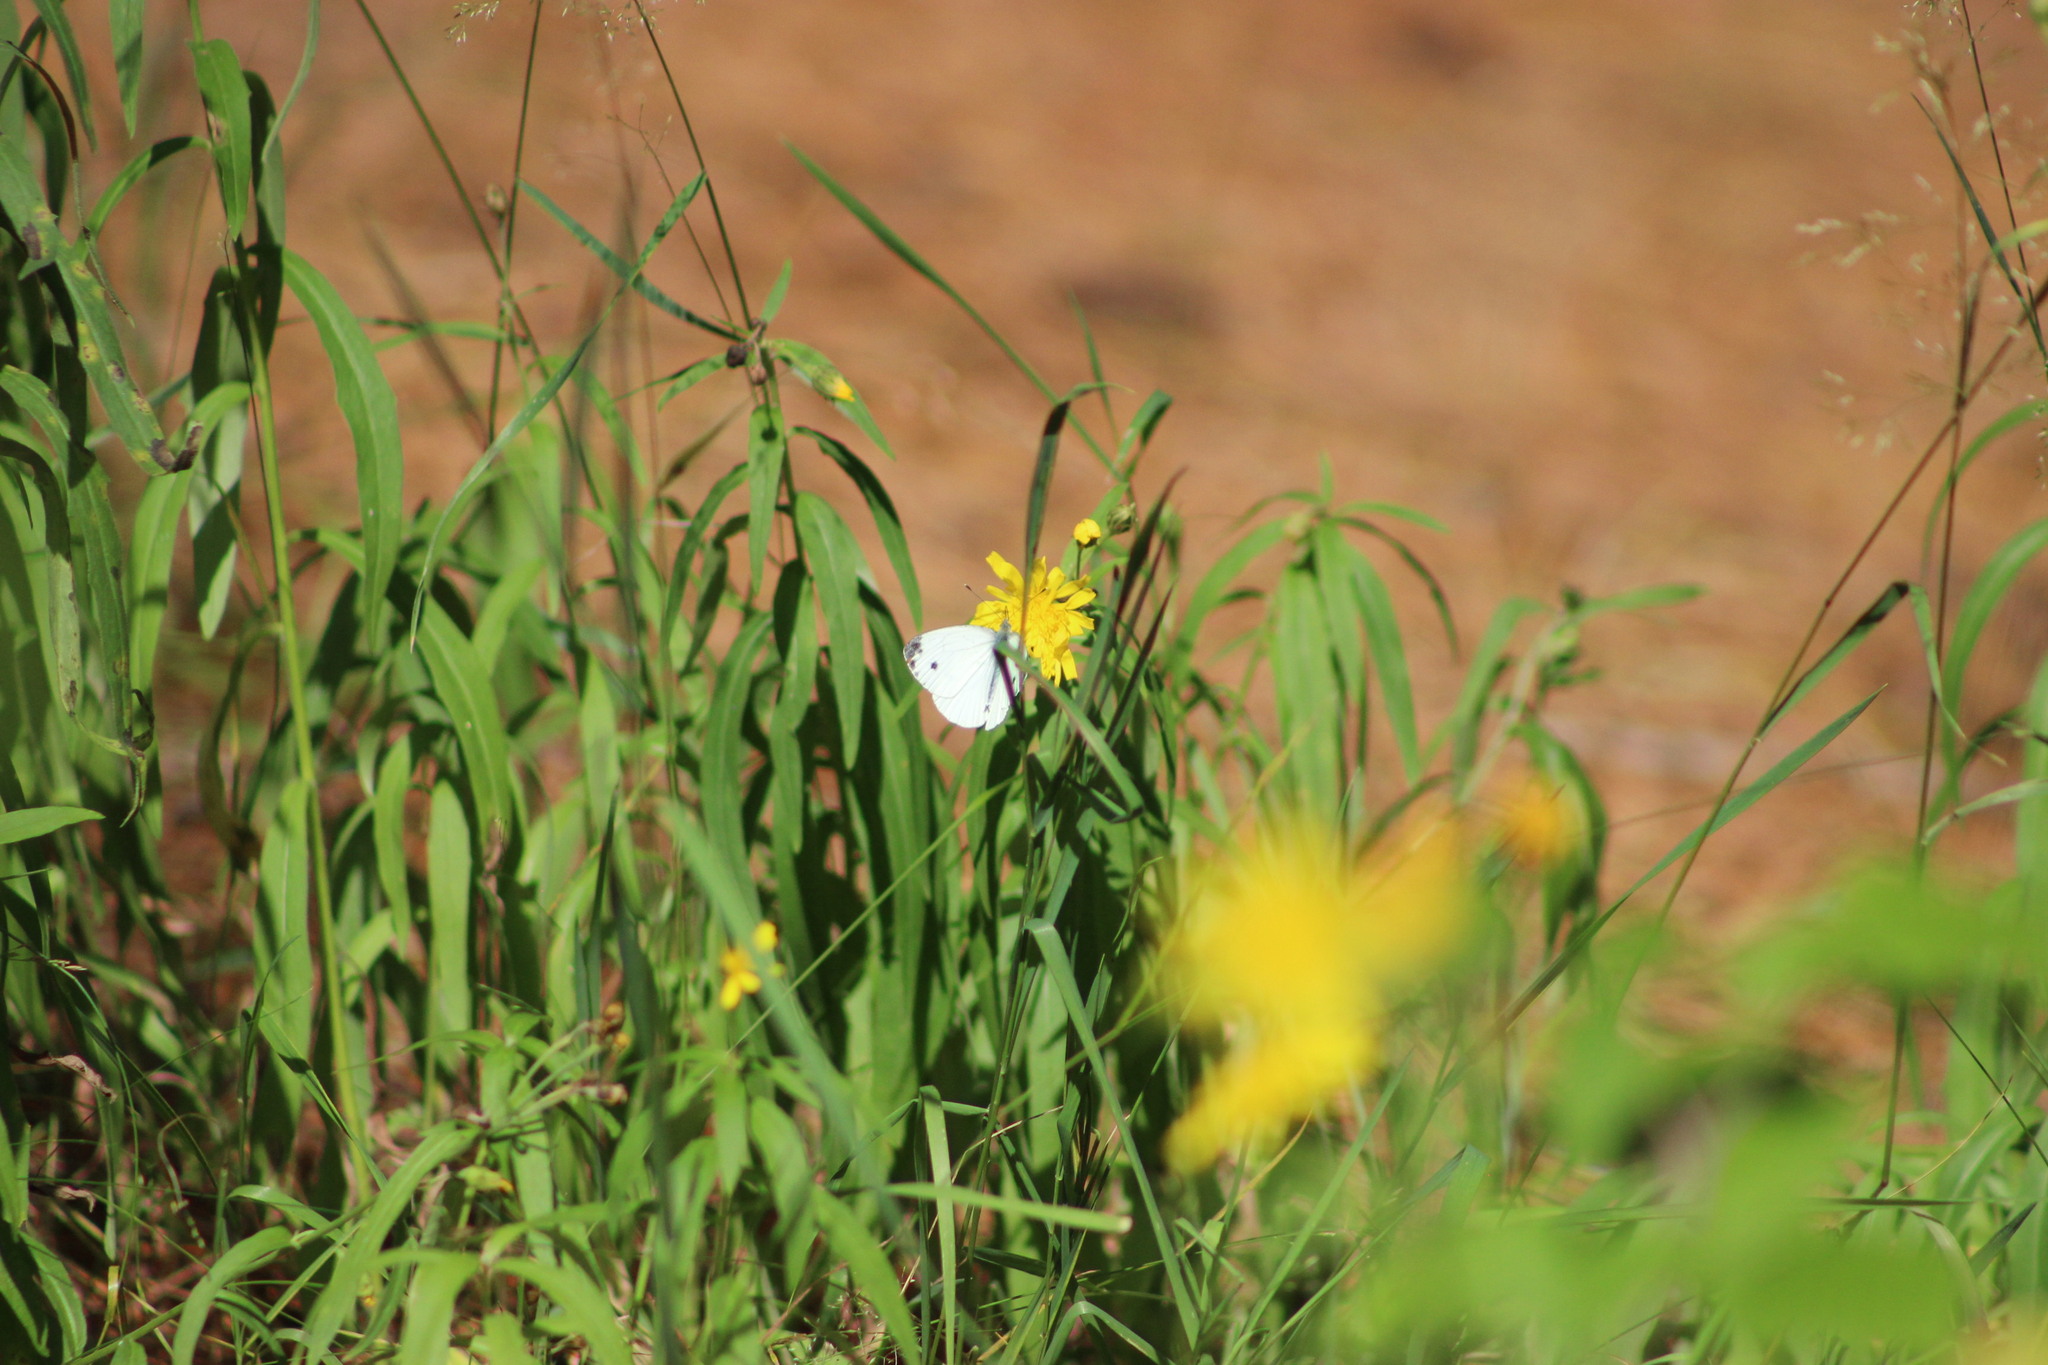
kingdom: Animalia
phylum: Arthropoda
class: Insecta
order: Lepidoptera
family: Pieridae
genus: Pieris
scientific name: Pieris napi
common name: Green-veined white
